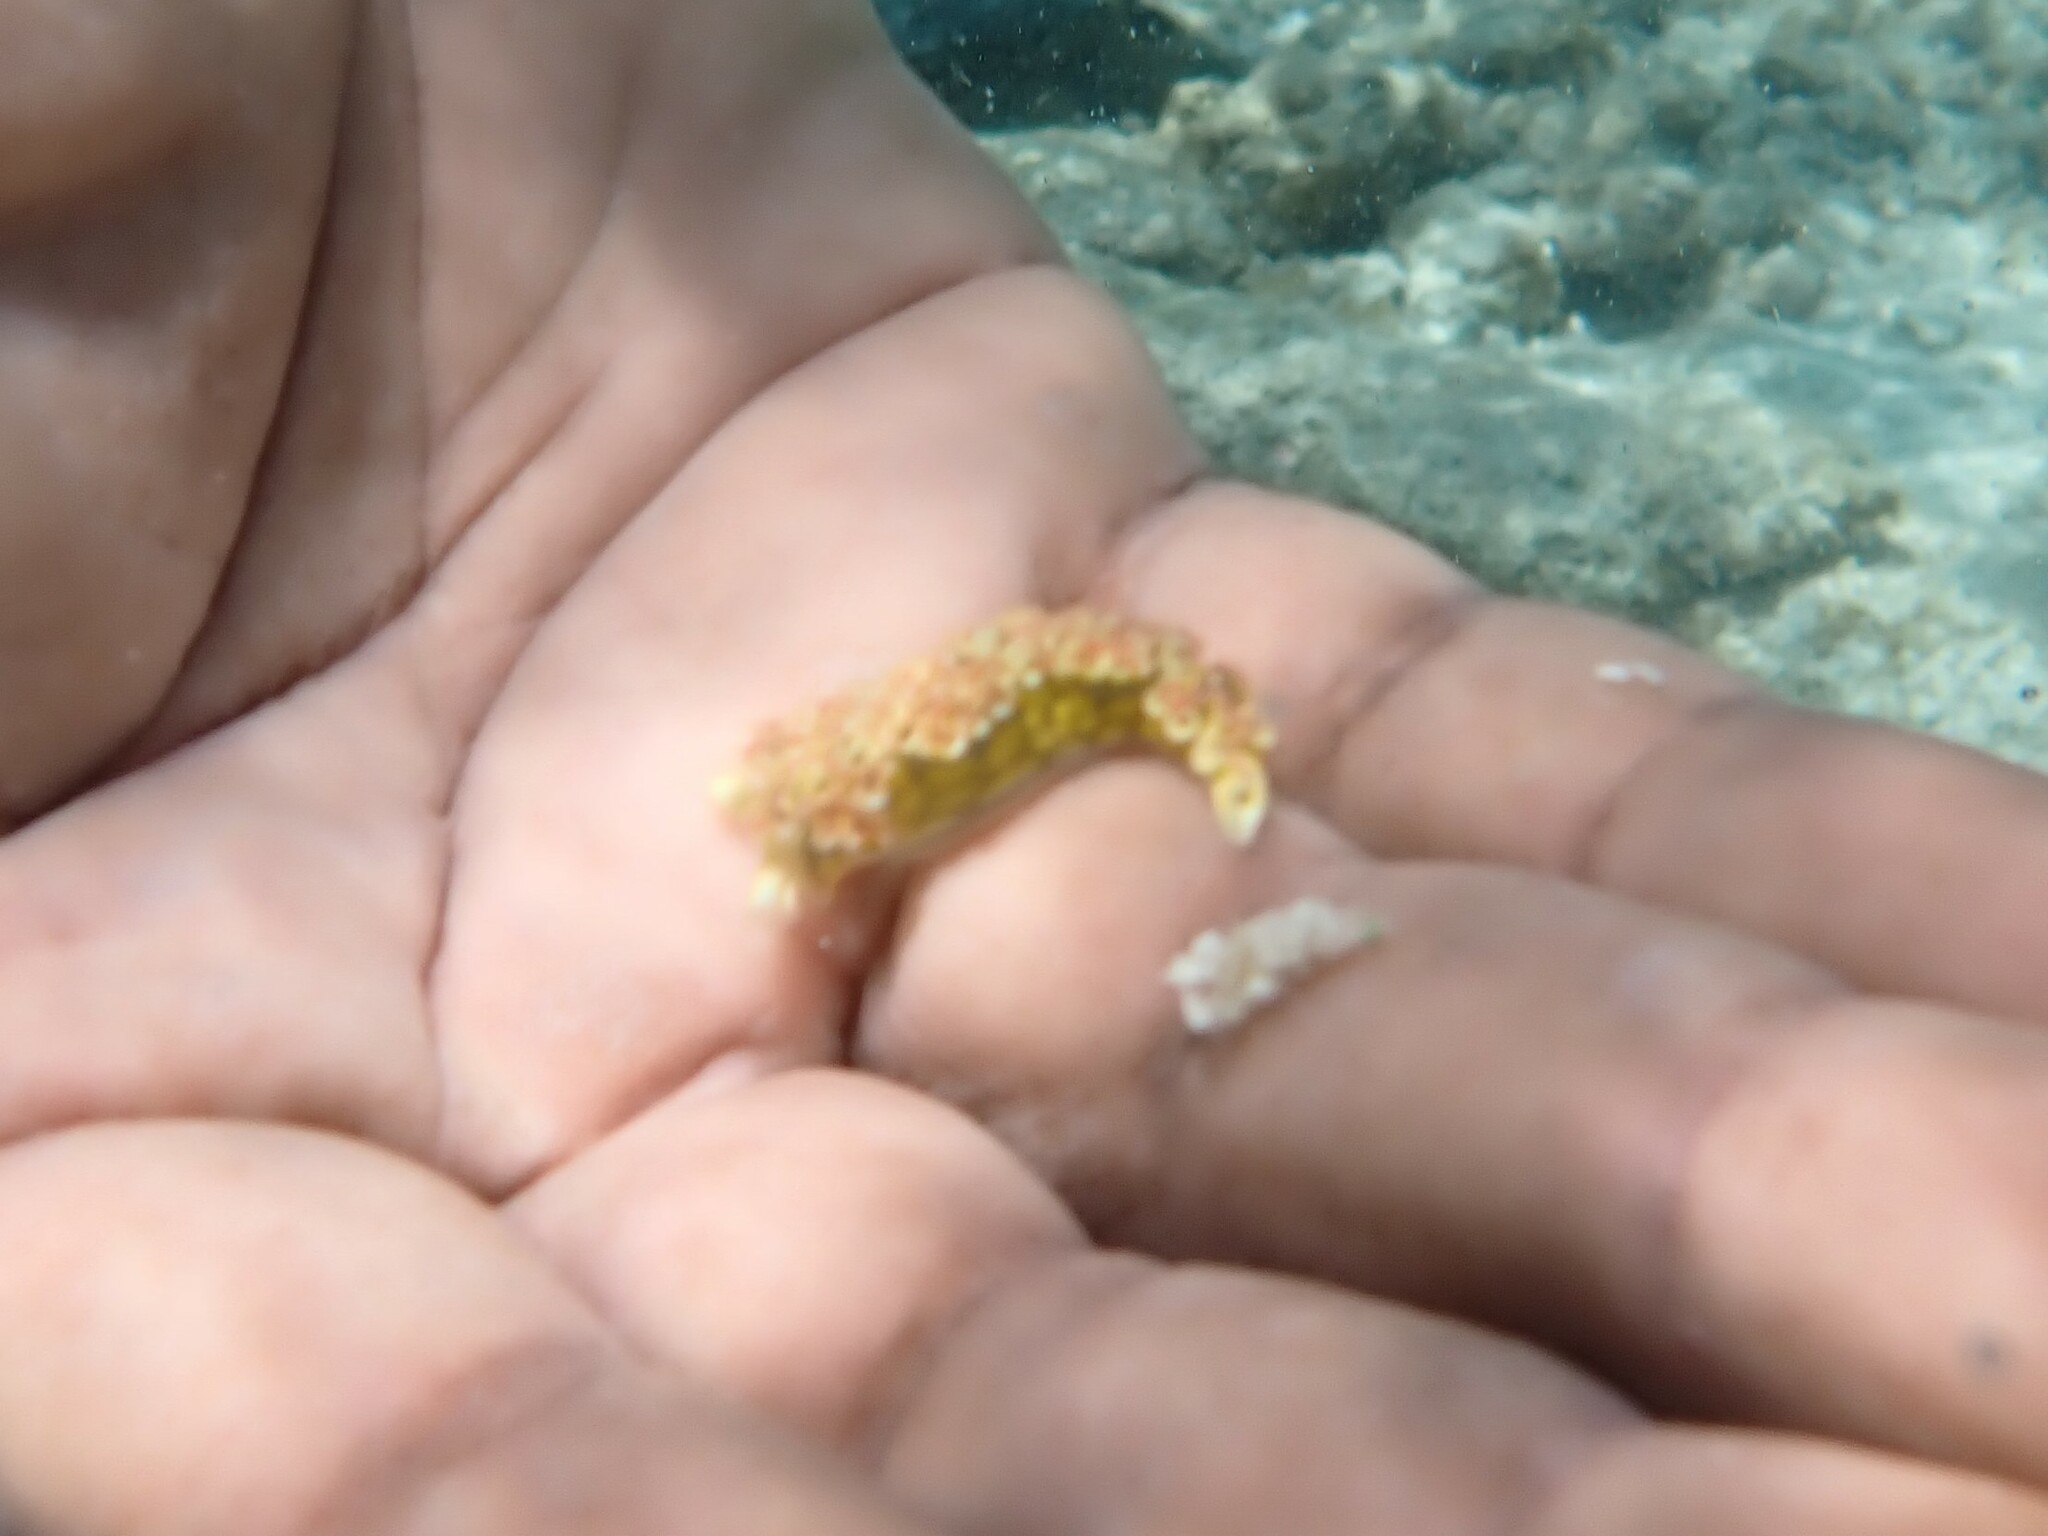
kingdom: Animalia
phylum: Mollusca
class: Gastropoda
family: Plakobranchidae
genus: Elysia
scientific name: Elysia crispata
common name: Lettuce slug
